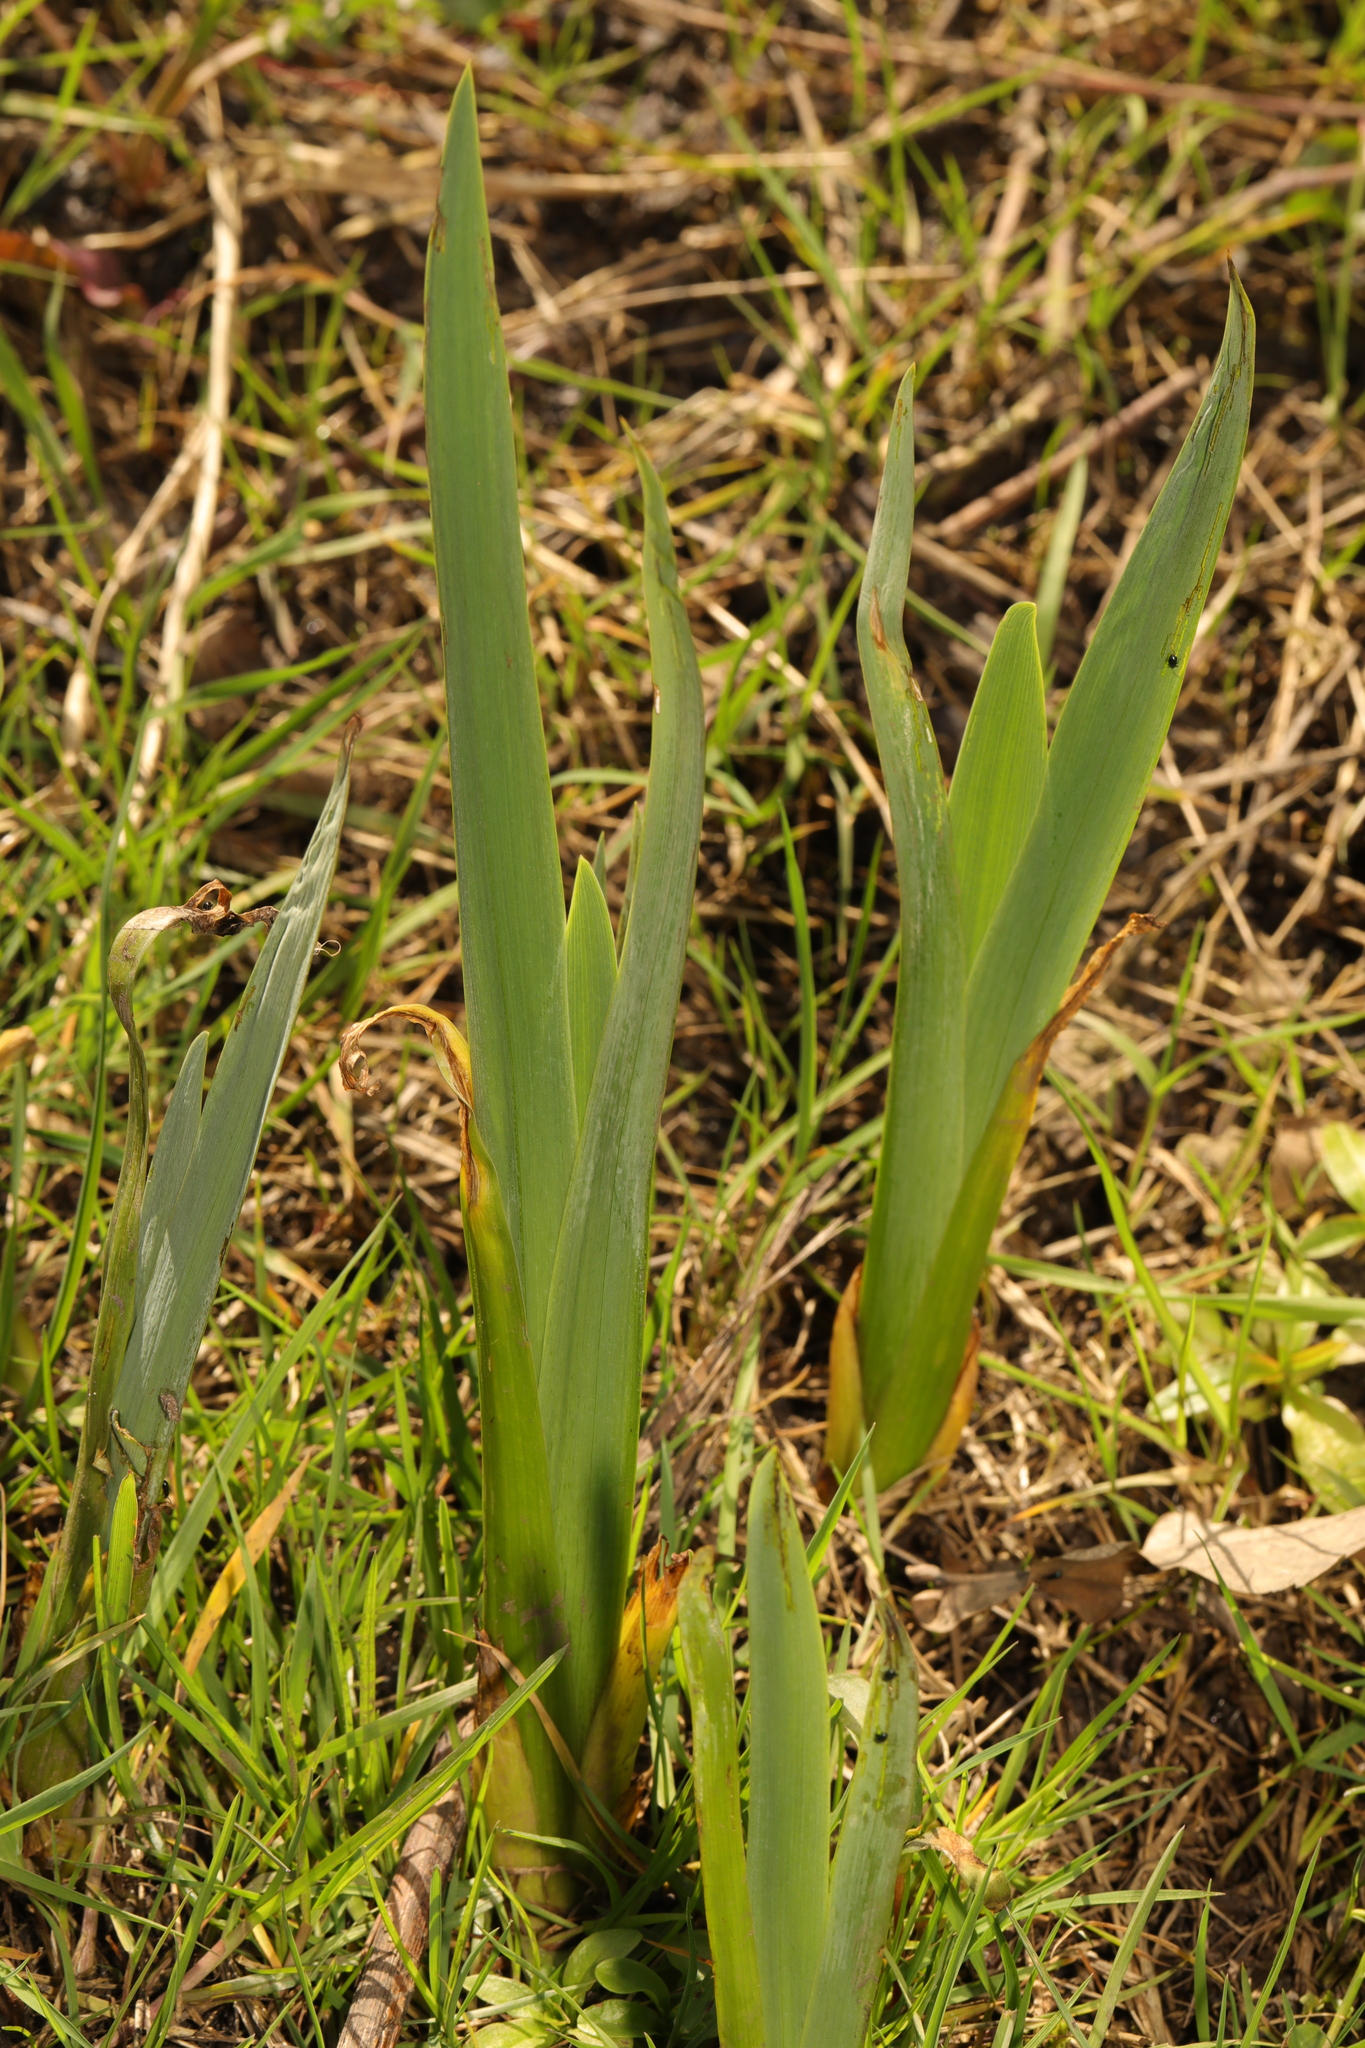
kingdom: Plantae
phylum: Tracheophyta
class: Liliopsida
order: Asparagales
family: Iridaceae
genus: Iris
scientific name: Iris pseudacorus
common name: Yellow flag
